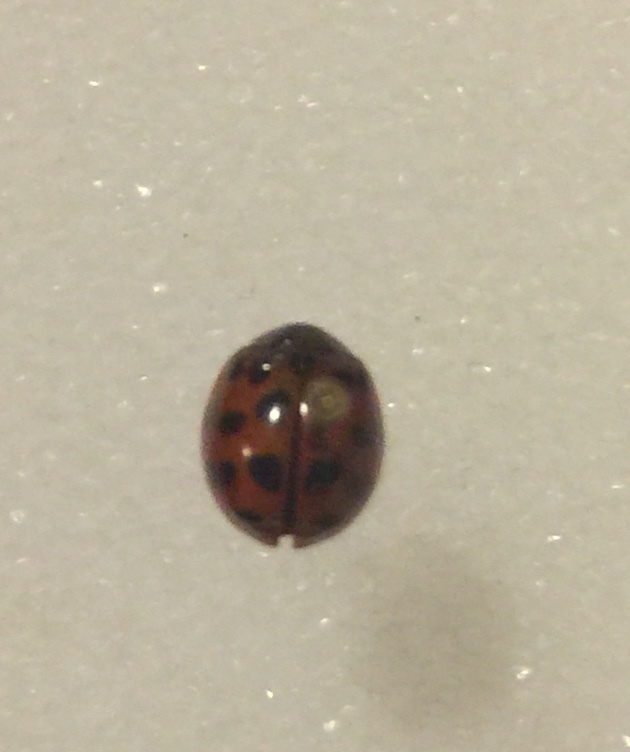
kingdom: Animalia
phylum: Arthropoda
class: Insecta
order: Coleoptera
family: Coccinellidae
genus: Harmonia
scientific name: Harmonia axyridis
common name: Harlequin ladybird
